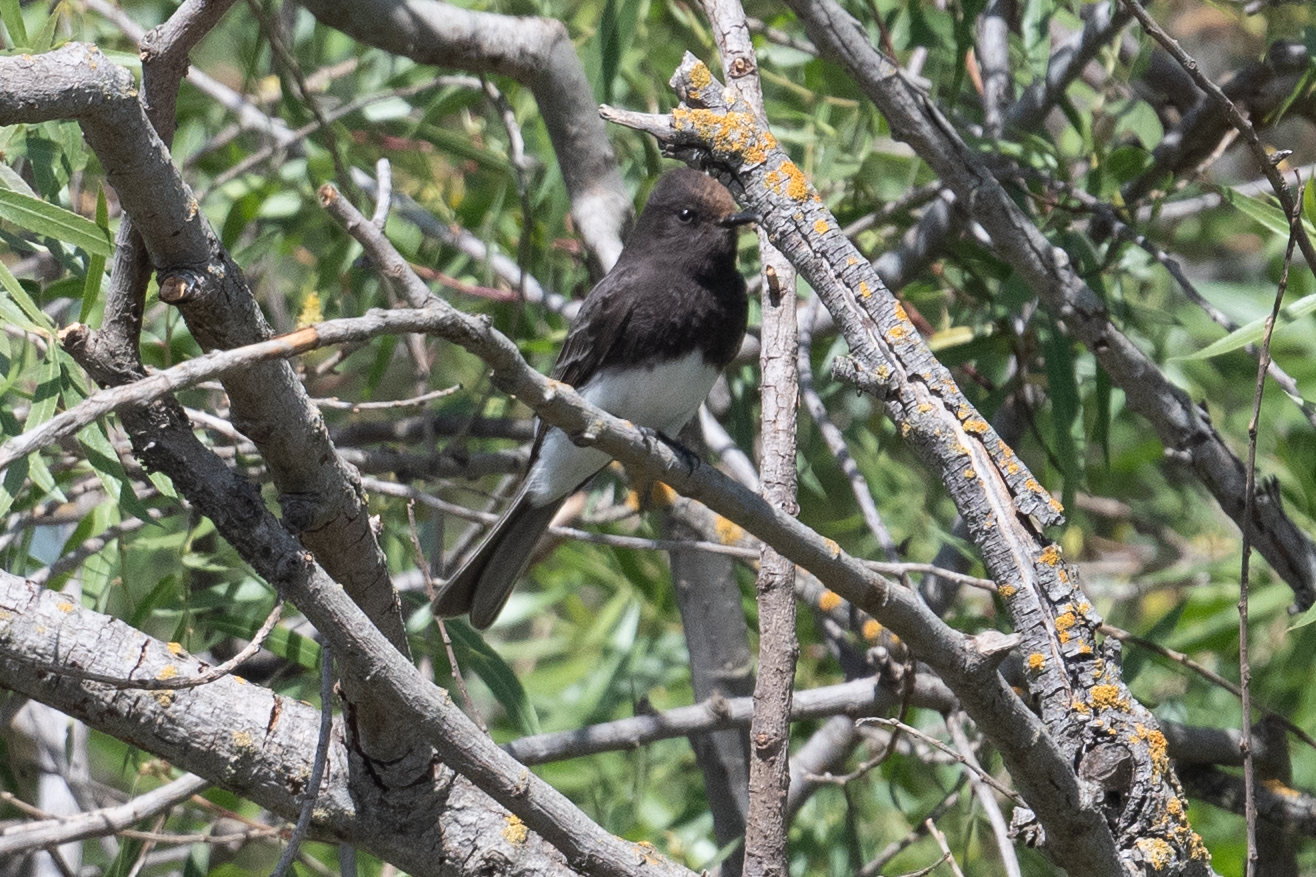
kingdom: Animalia
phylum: Chordata
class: Aves
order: Passeriformes
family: Tyrannidae
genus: Sayornis
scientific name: Sayornis nigricans
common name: Black phoebe
